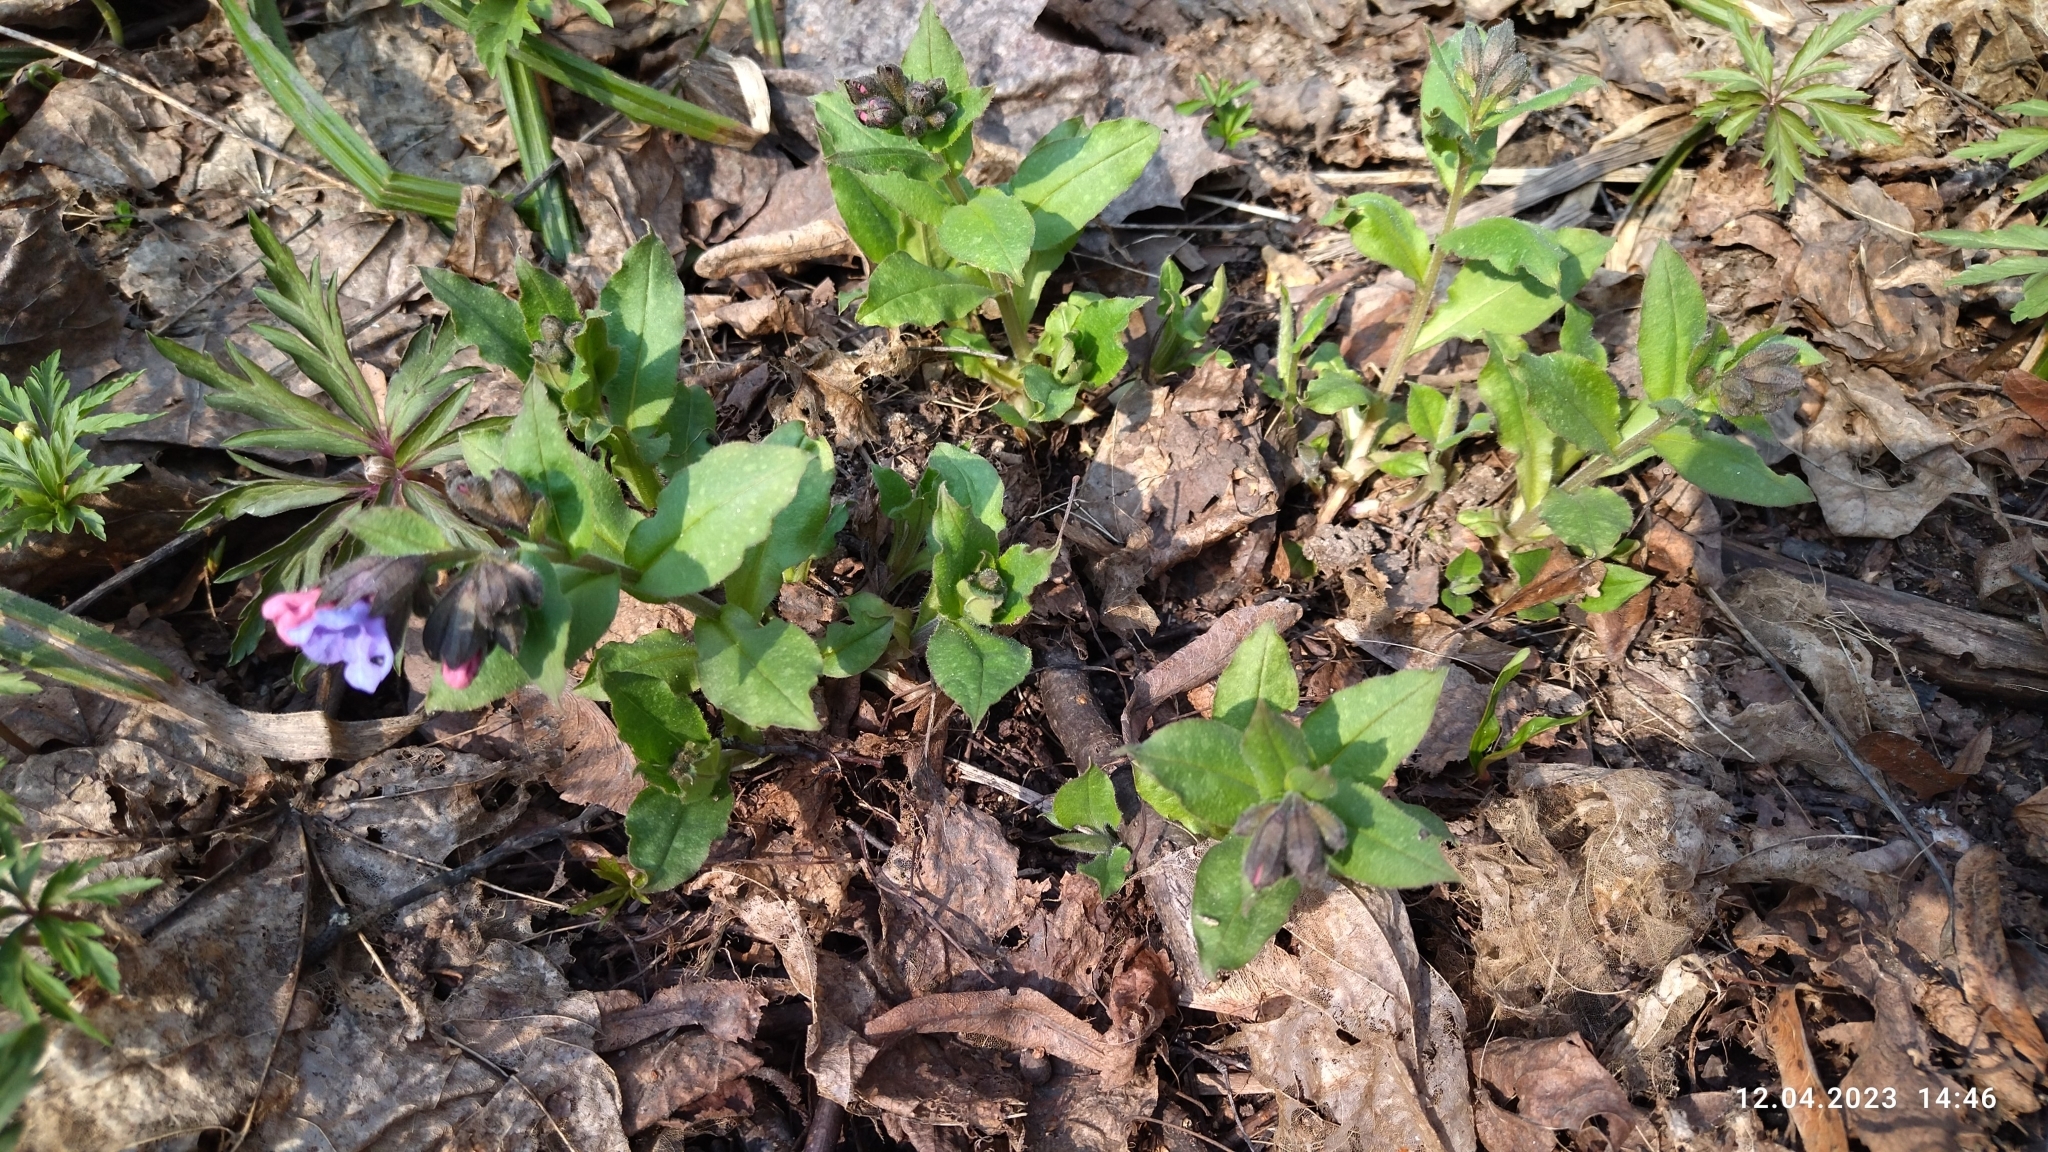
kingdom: Plantae
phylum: Tracheophyta
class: Magnoliopsida
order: Boraginales
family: Boraginaceae
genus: Pulmonaria
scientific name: Pulmonaria obscura
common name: Suffolk lungwort
